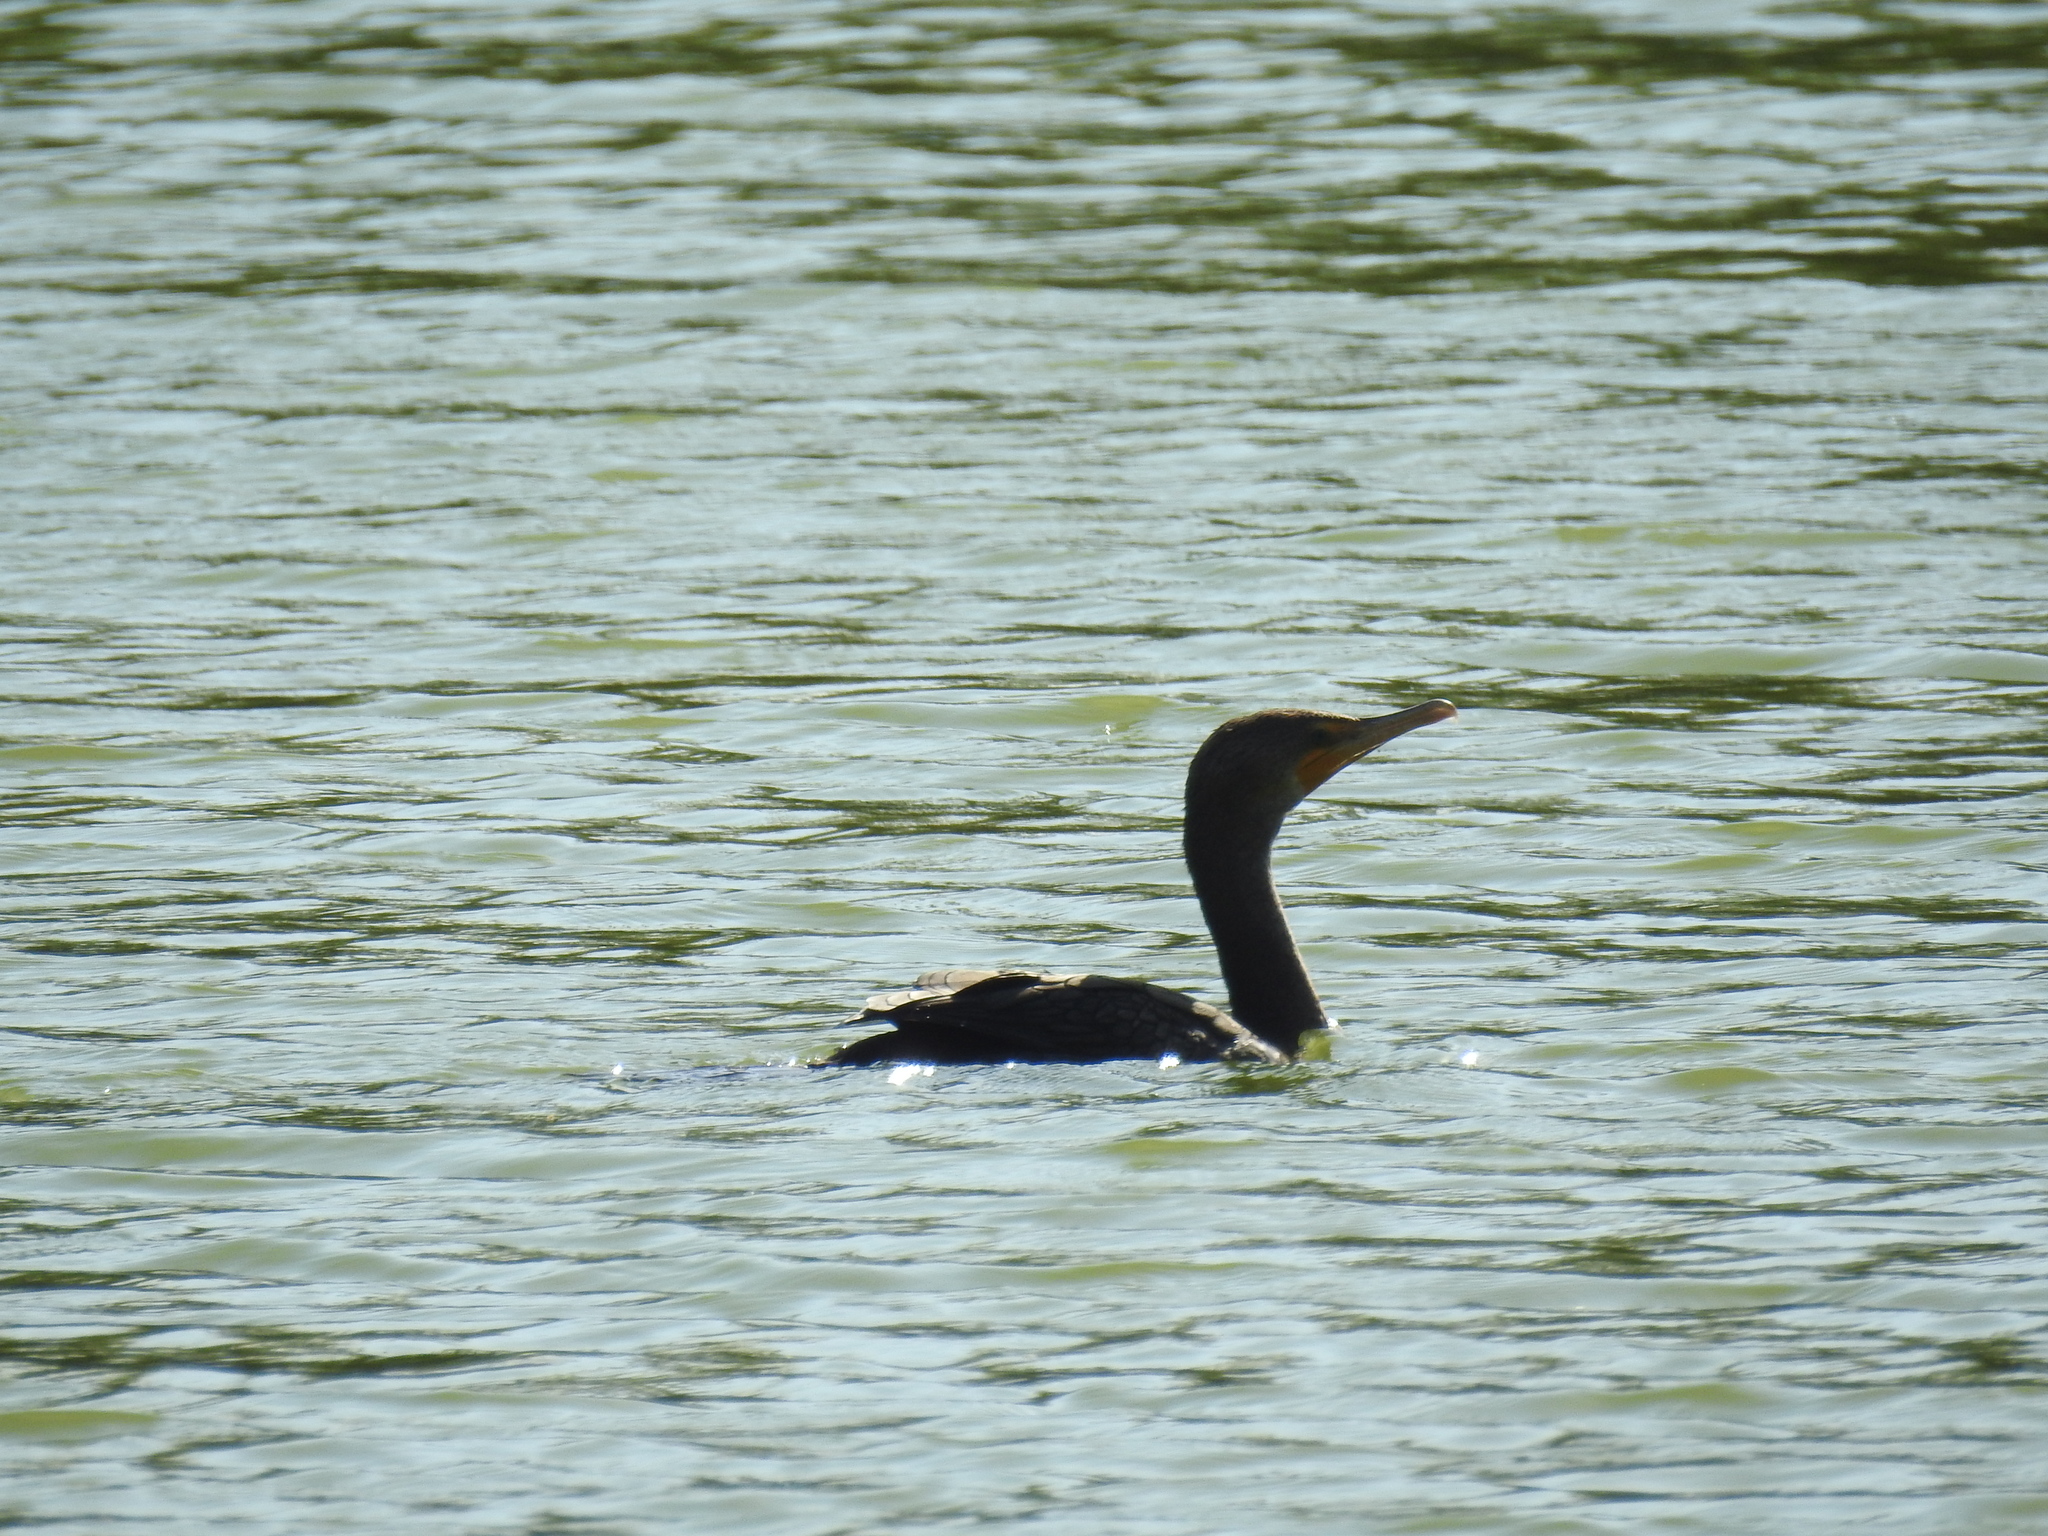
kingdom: Animalia
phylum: Chordata
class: Aves
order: Suliformes
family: Phalacrocoracidae
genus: Phalacrocorax
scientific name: Phalacrocorax auritus
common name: Double-crested cormorant
